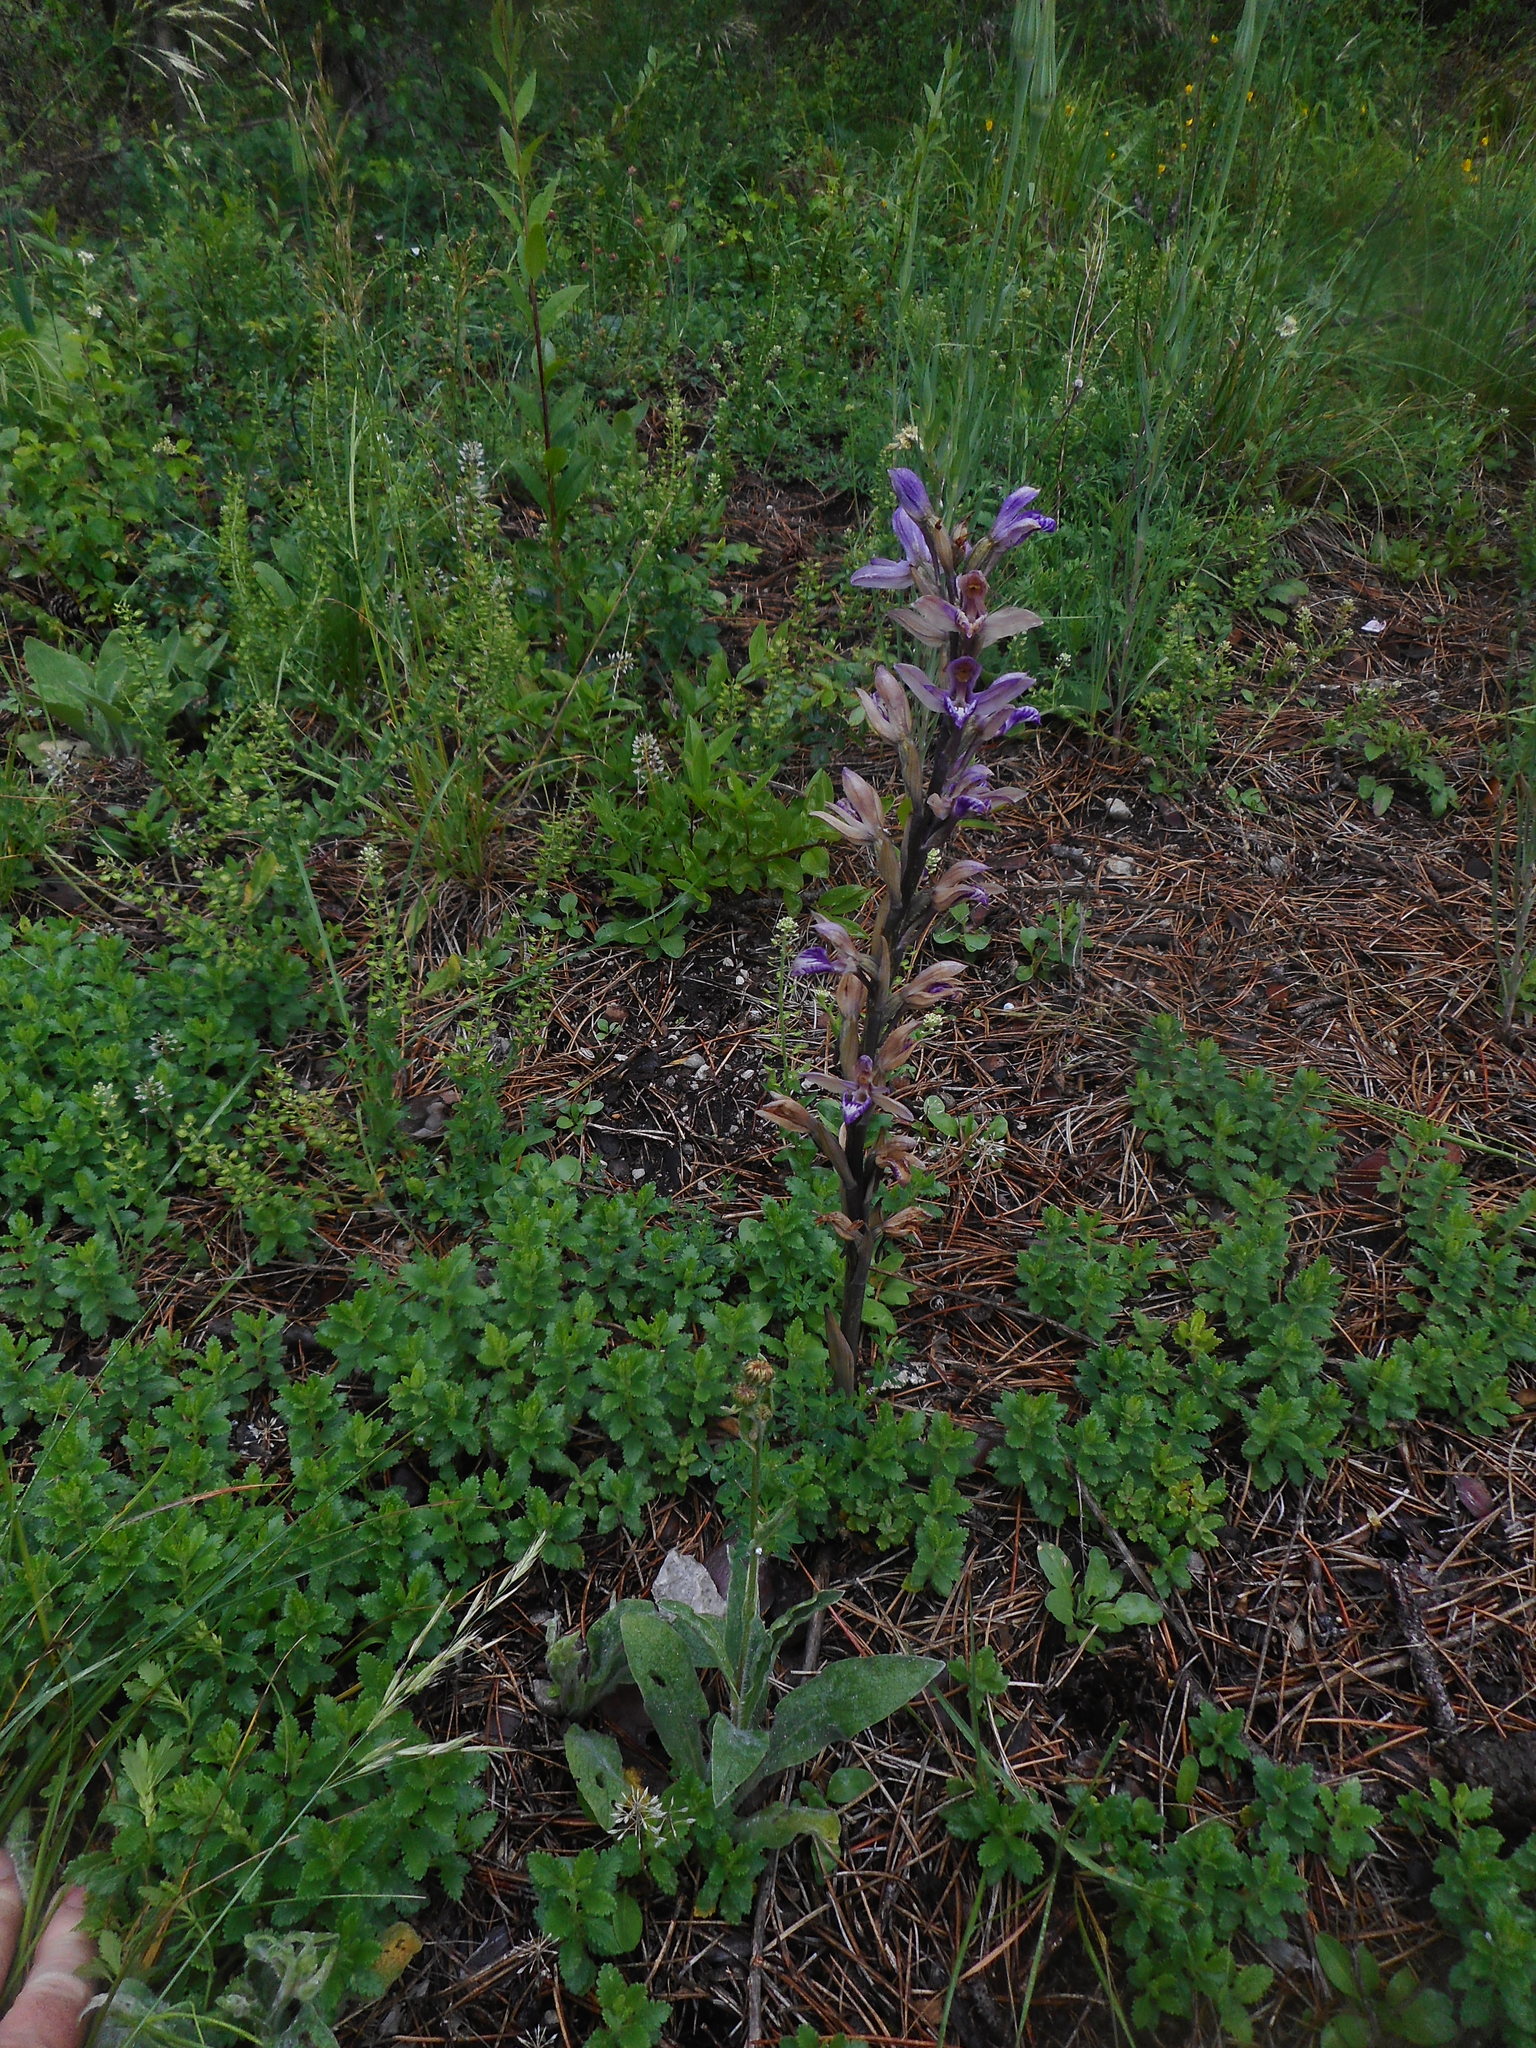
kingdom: Plantae
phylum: Tracheophyta
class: Liliopsida
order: Asparagales
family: Orchidaceae
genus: Limodorum
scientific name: Limodorum abortivum
